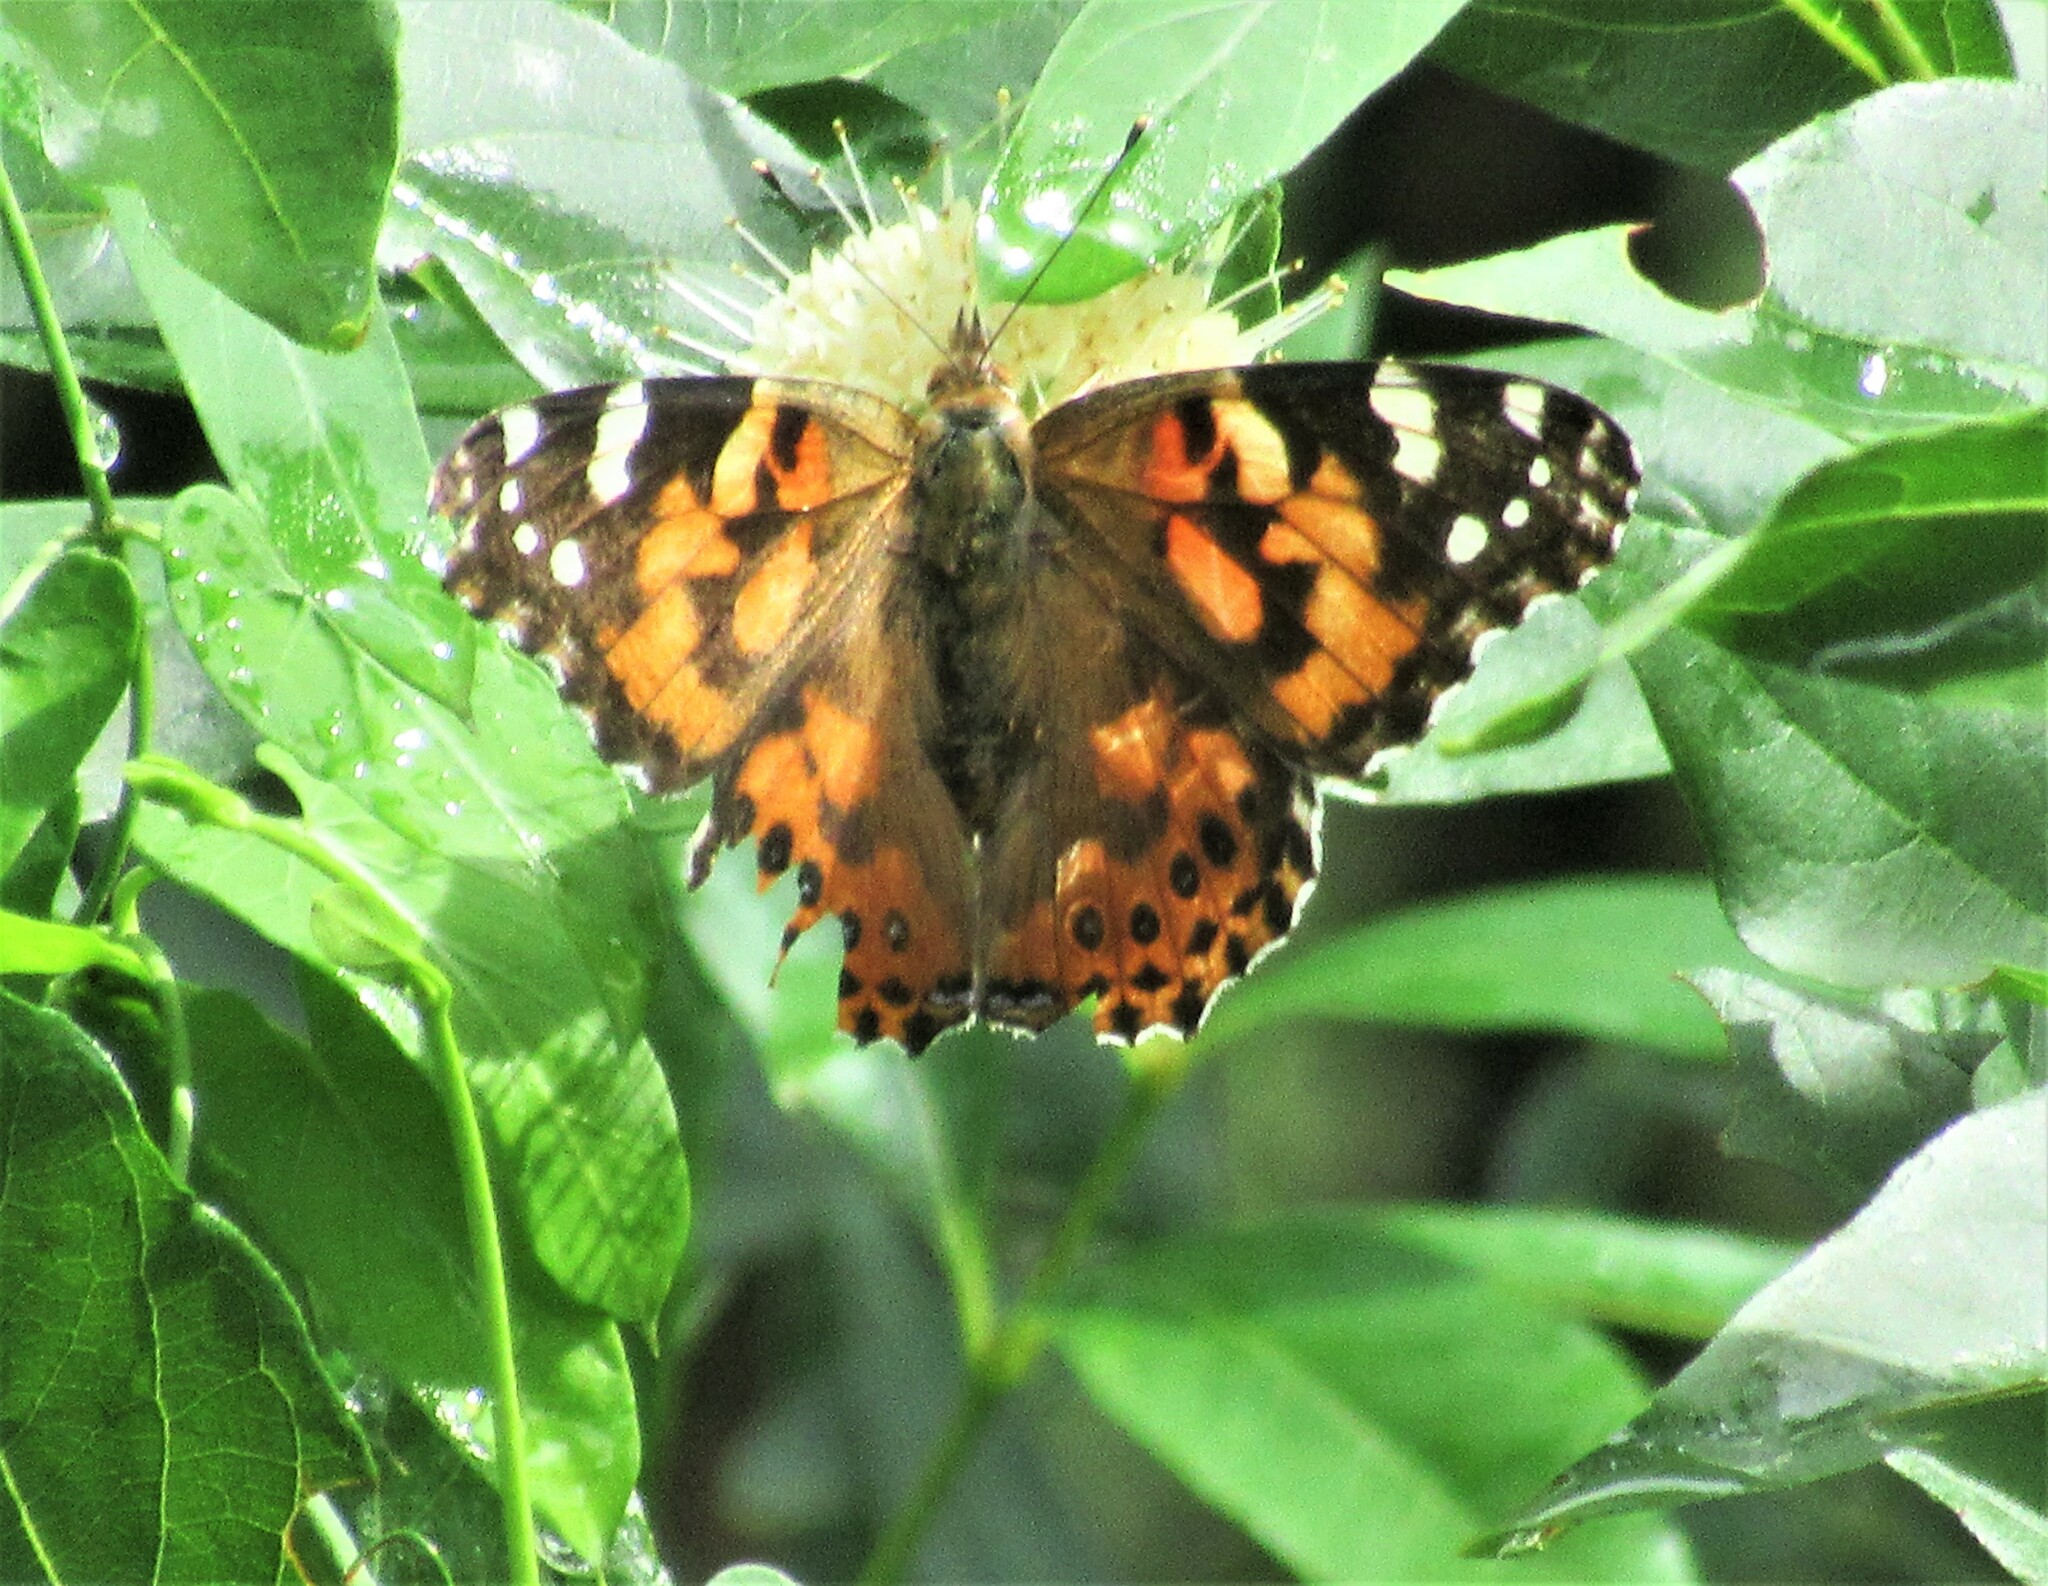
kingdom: Animalia
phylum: Arthropoda
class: Insecta
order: Lepidoptera
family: Nymphalidae
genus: Vanessa
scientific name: Vanessa cardui
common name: Painted lady
